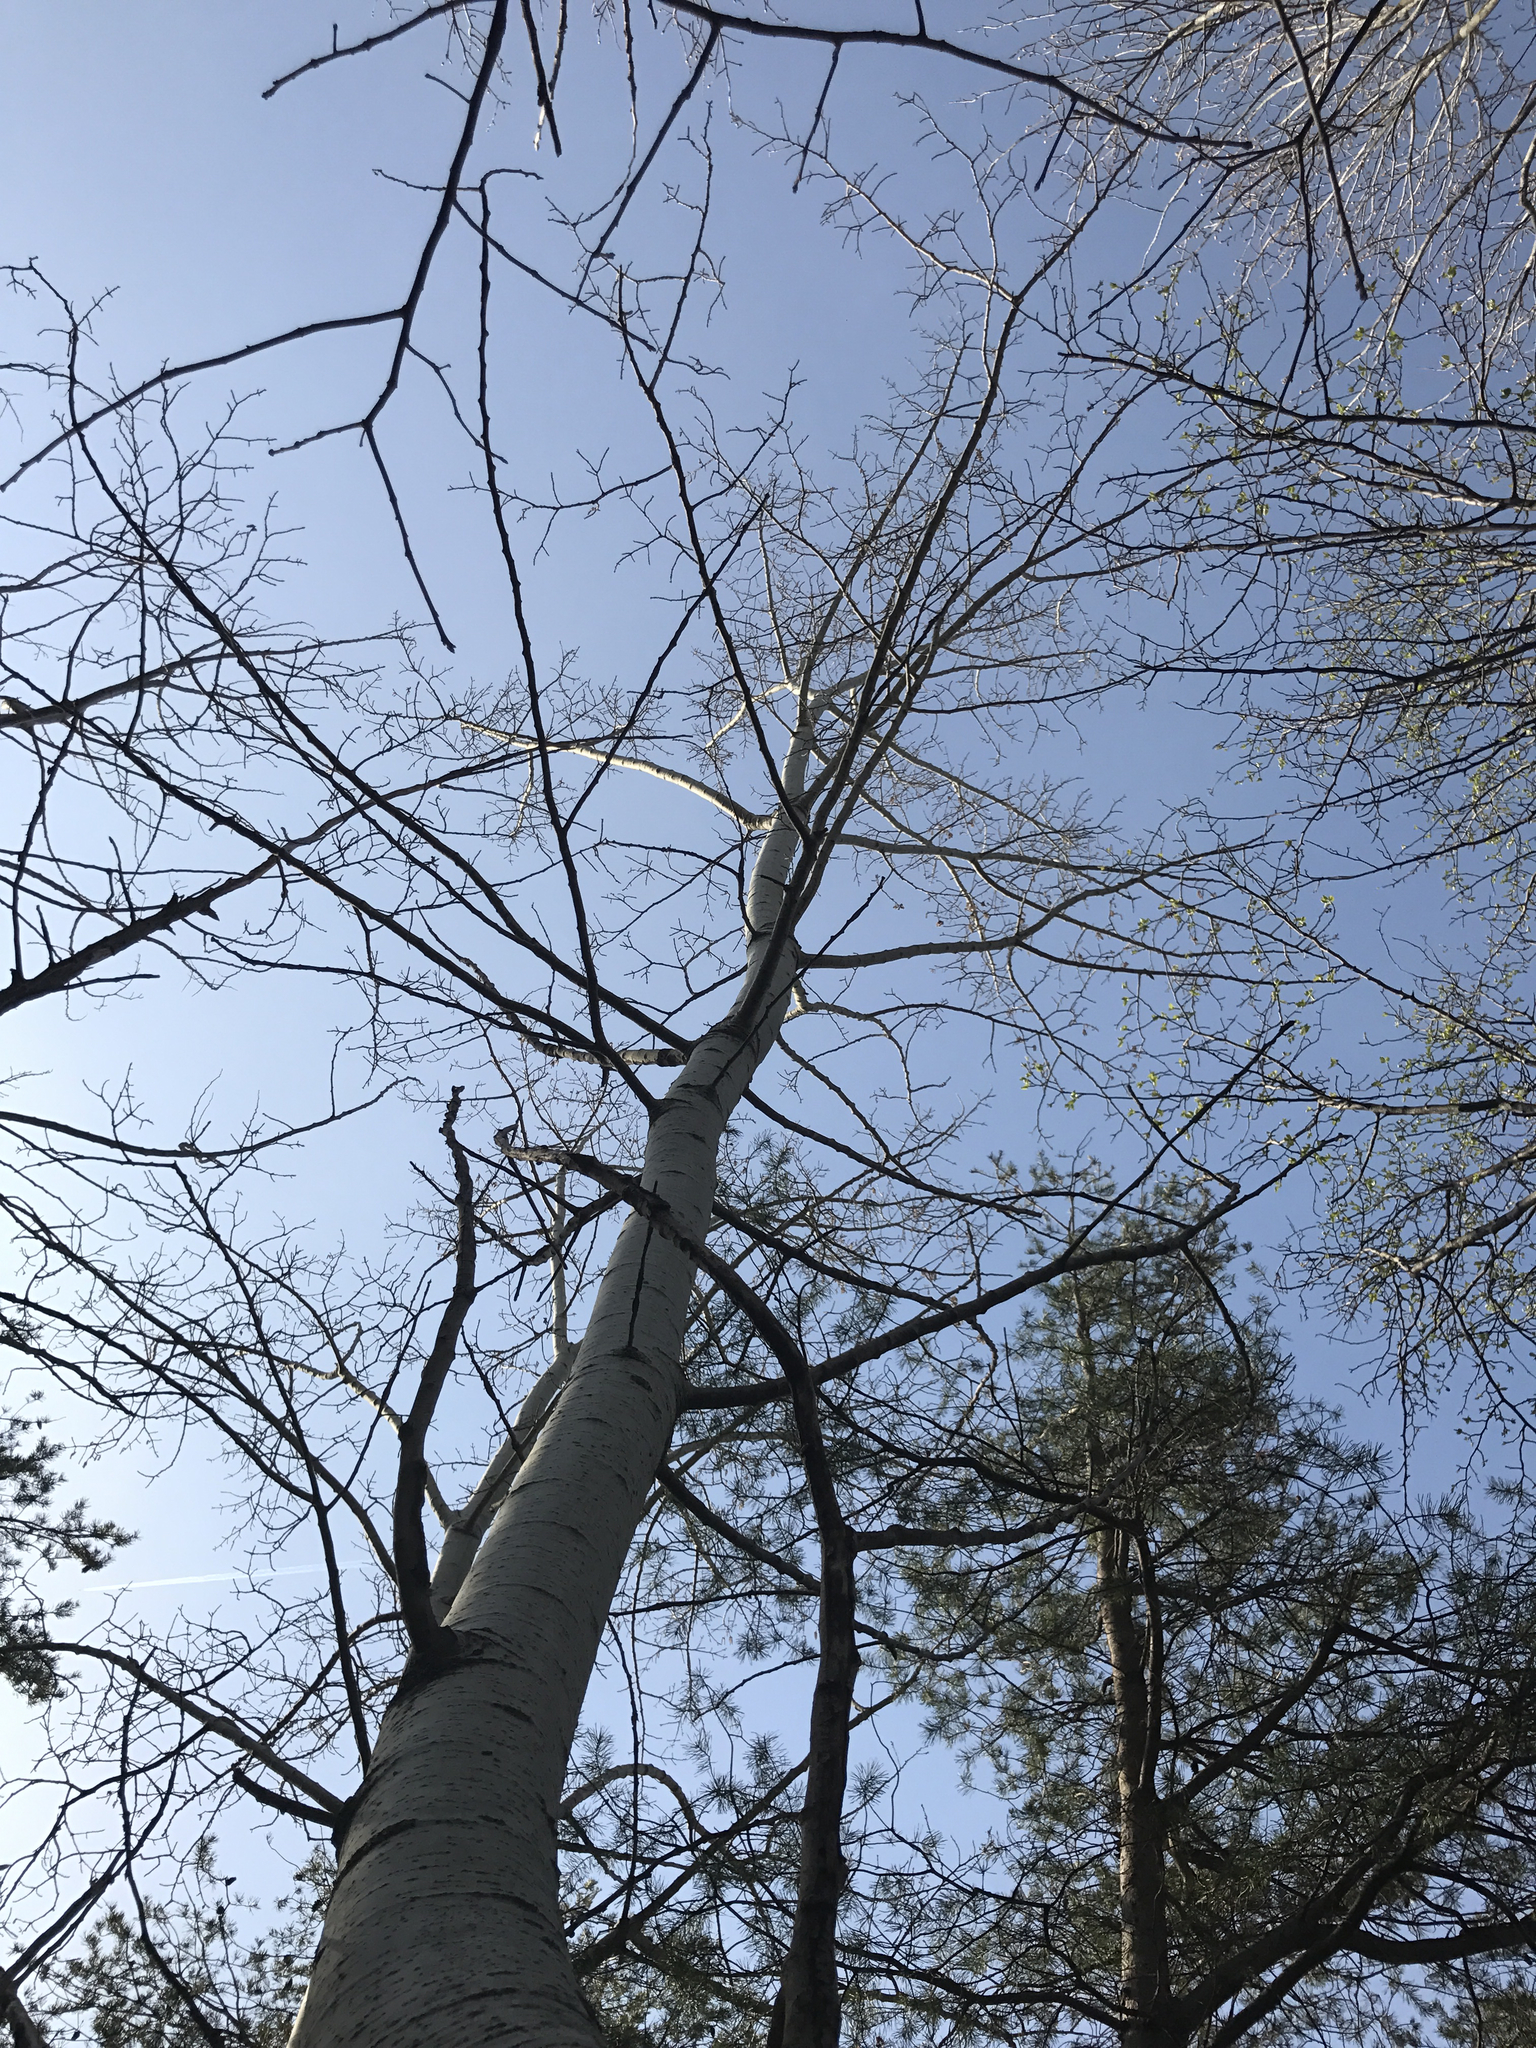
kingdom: Plantae
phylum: Tracheophyta
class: Magnoliopsida
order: Malpighiales
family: Salicaceae
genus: Populus
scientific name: Populus grandidentata
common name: Bigtooth aspen
